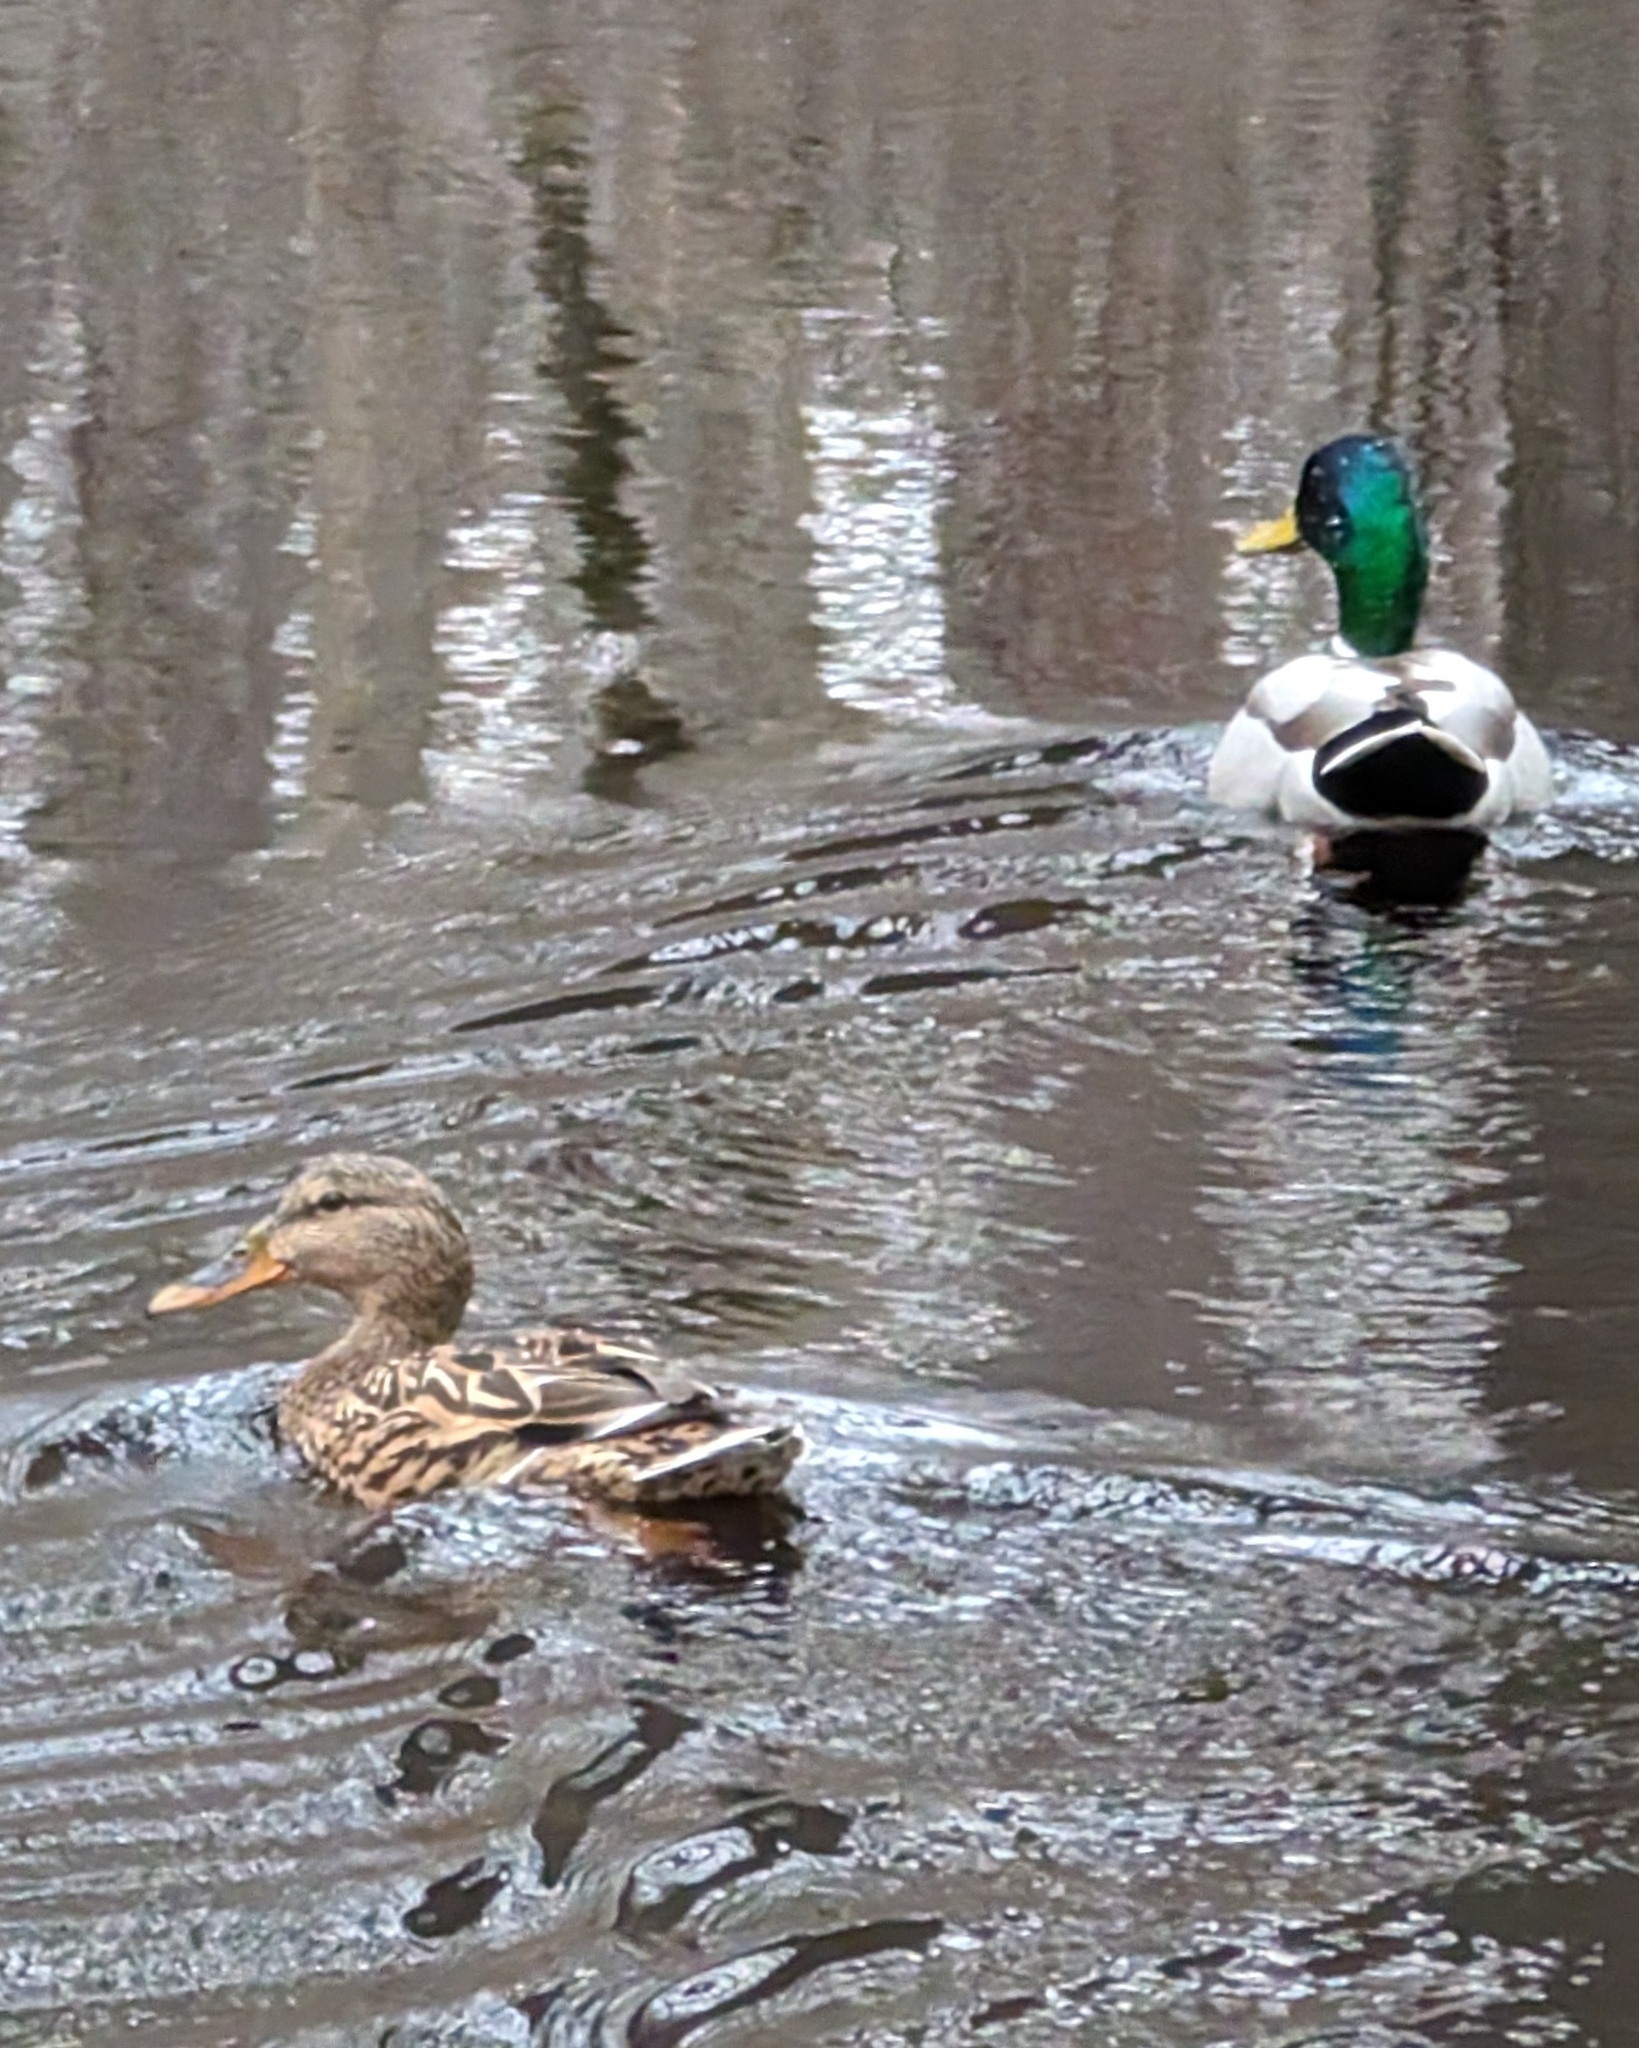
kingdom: Animalia
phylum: Chordata
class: Aves
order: Anseriformes
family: Anatidae
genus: Anas
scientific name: Anas platyrhynchos
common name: Mallard
